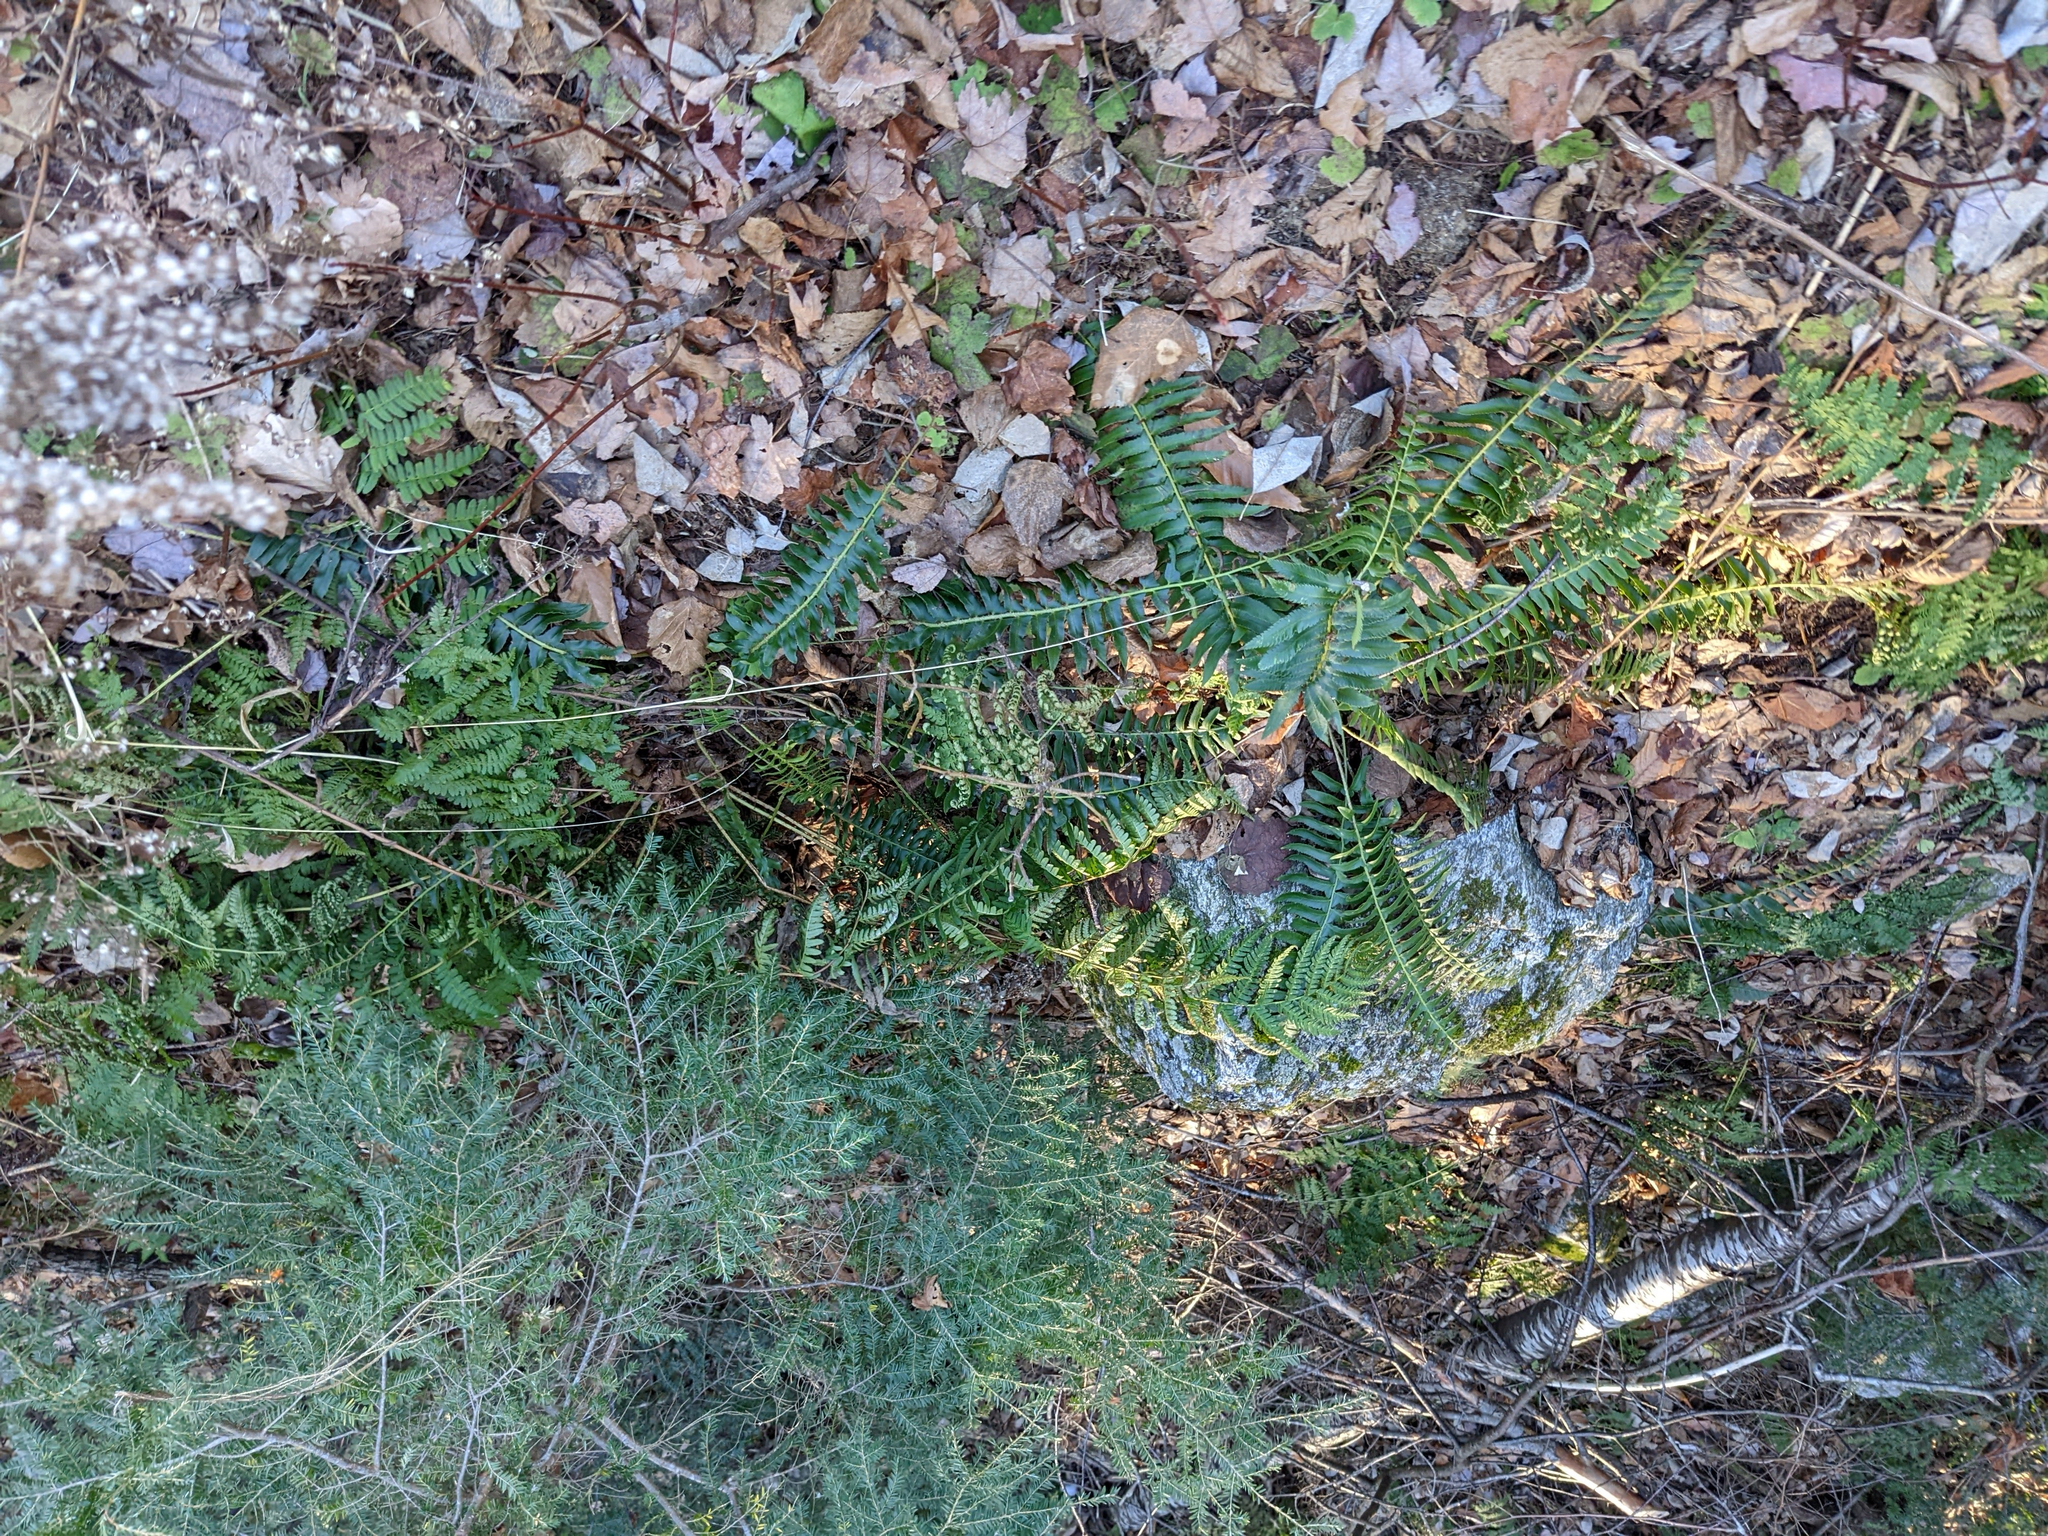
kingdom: Plantae
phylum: Tracheophyta
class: Polypodiopsida
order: Polypodiales
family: Dryopteridaceae
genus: Polystichum
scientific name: Polystichum acrostichoides
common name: Christmas fern
